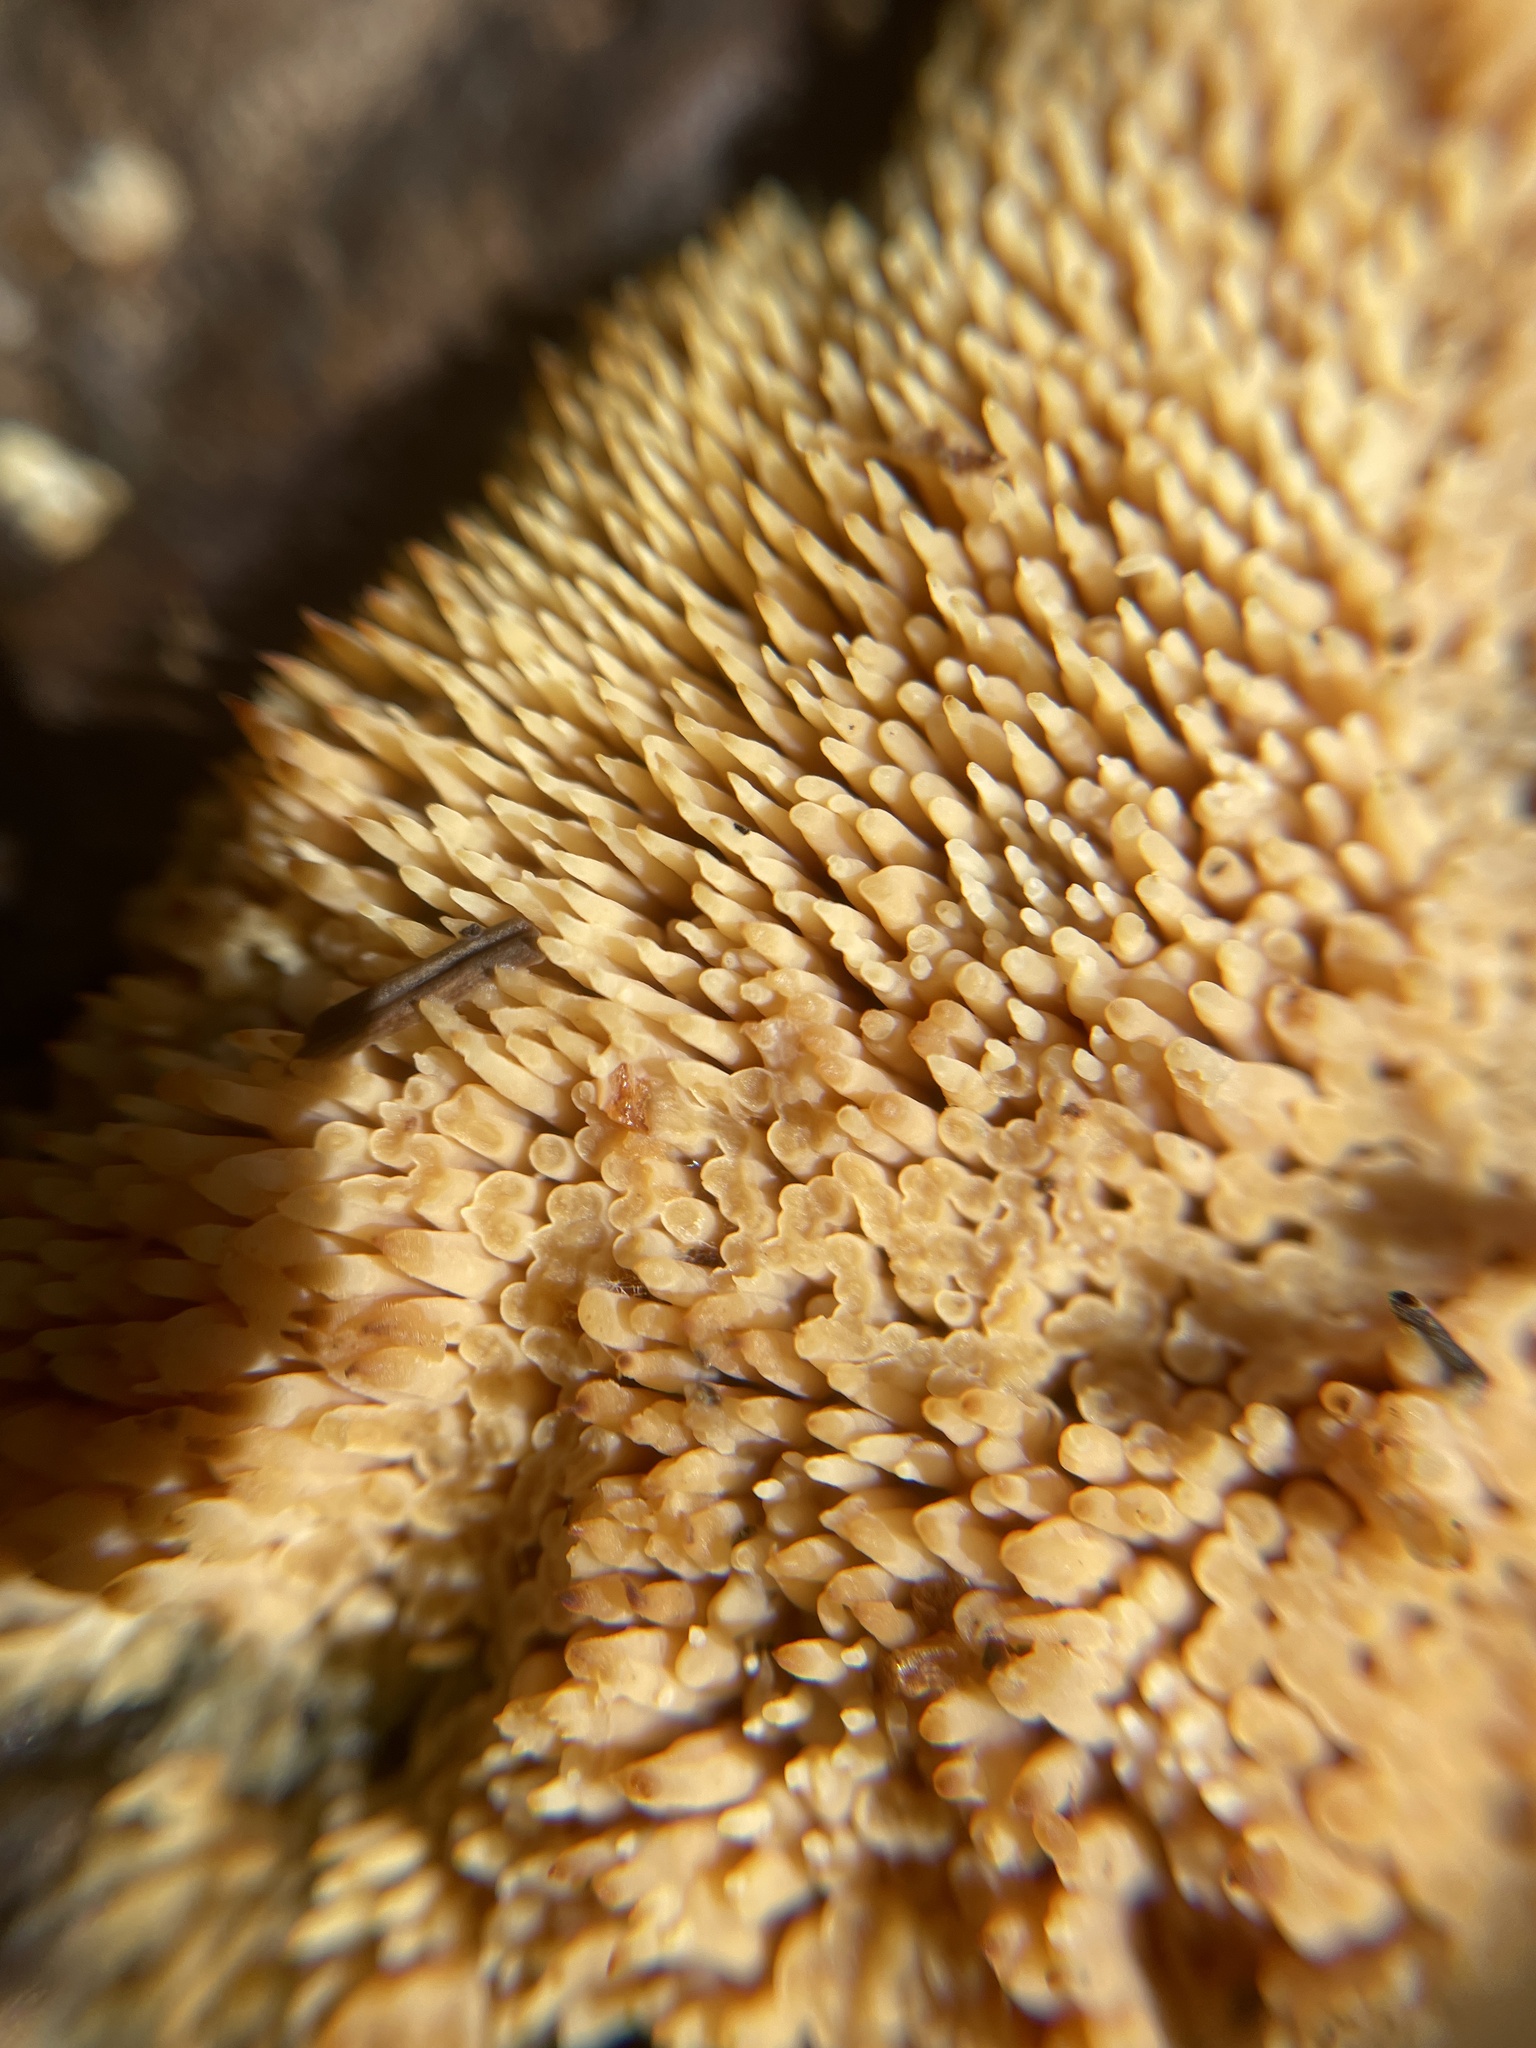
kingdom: Fungi
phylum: Basidiomycota
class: Agaricomycetes
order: Agaricales
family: Radulomycetaceae
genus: Radulomyces
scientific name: Radulomyces copelandii
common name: Asian beauty
